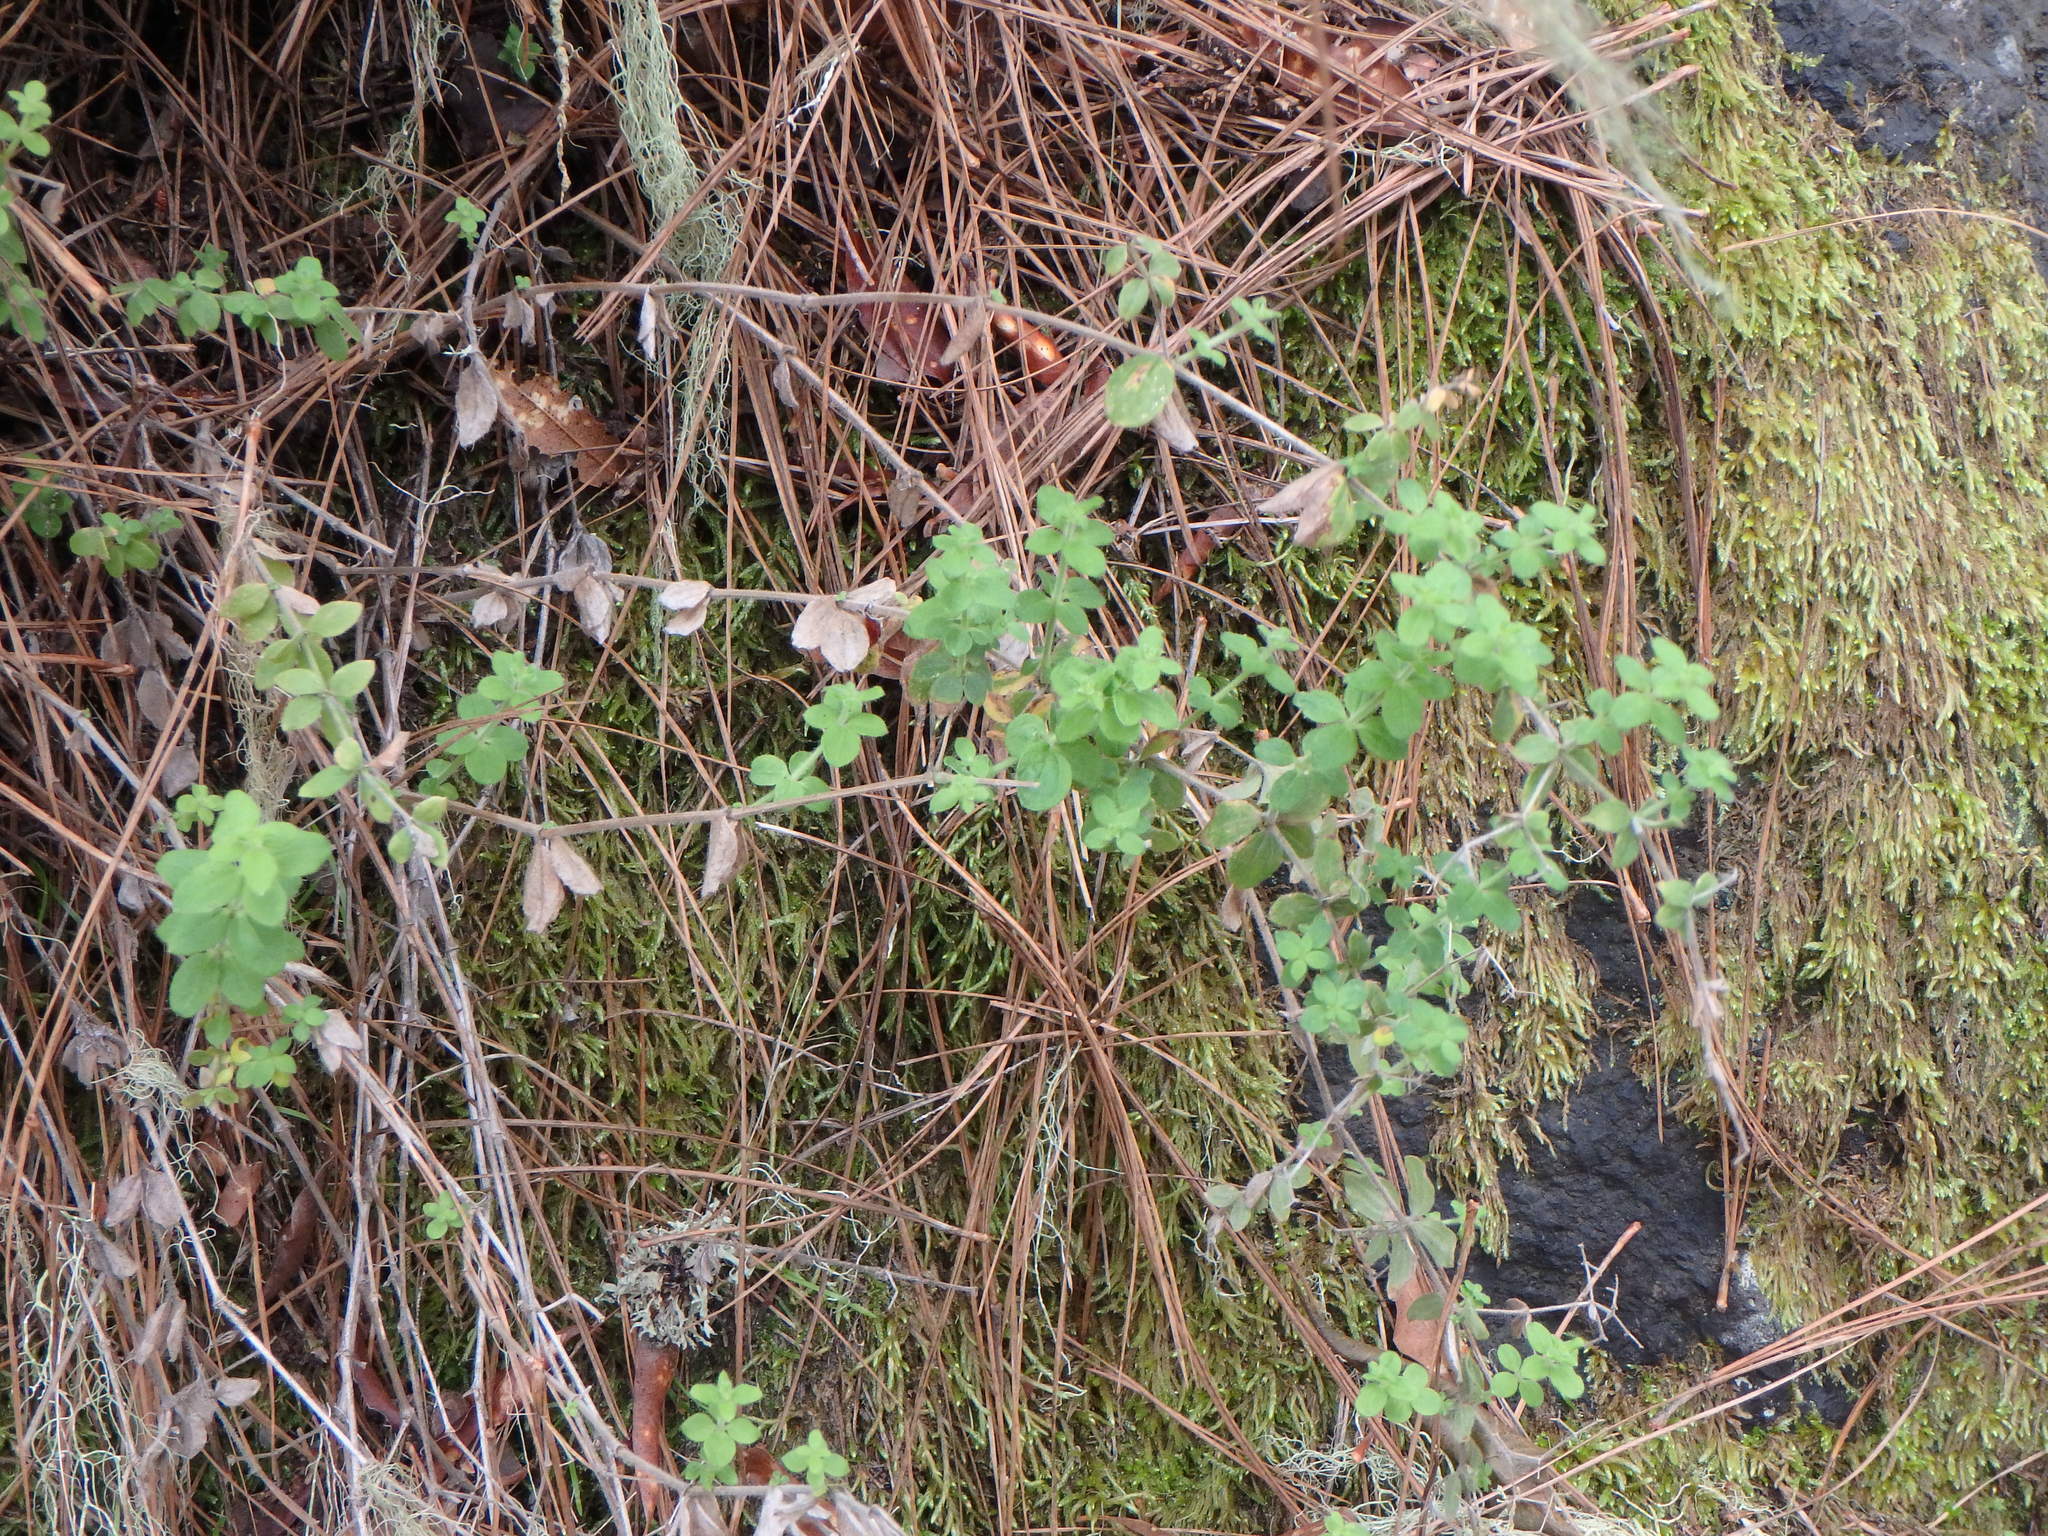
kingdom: Plantae
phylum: Tracheophyta
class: Magnoliopsida
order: Gentianales
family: Rubiaceae
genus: Galium
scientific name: Galium scabrum
